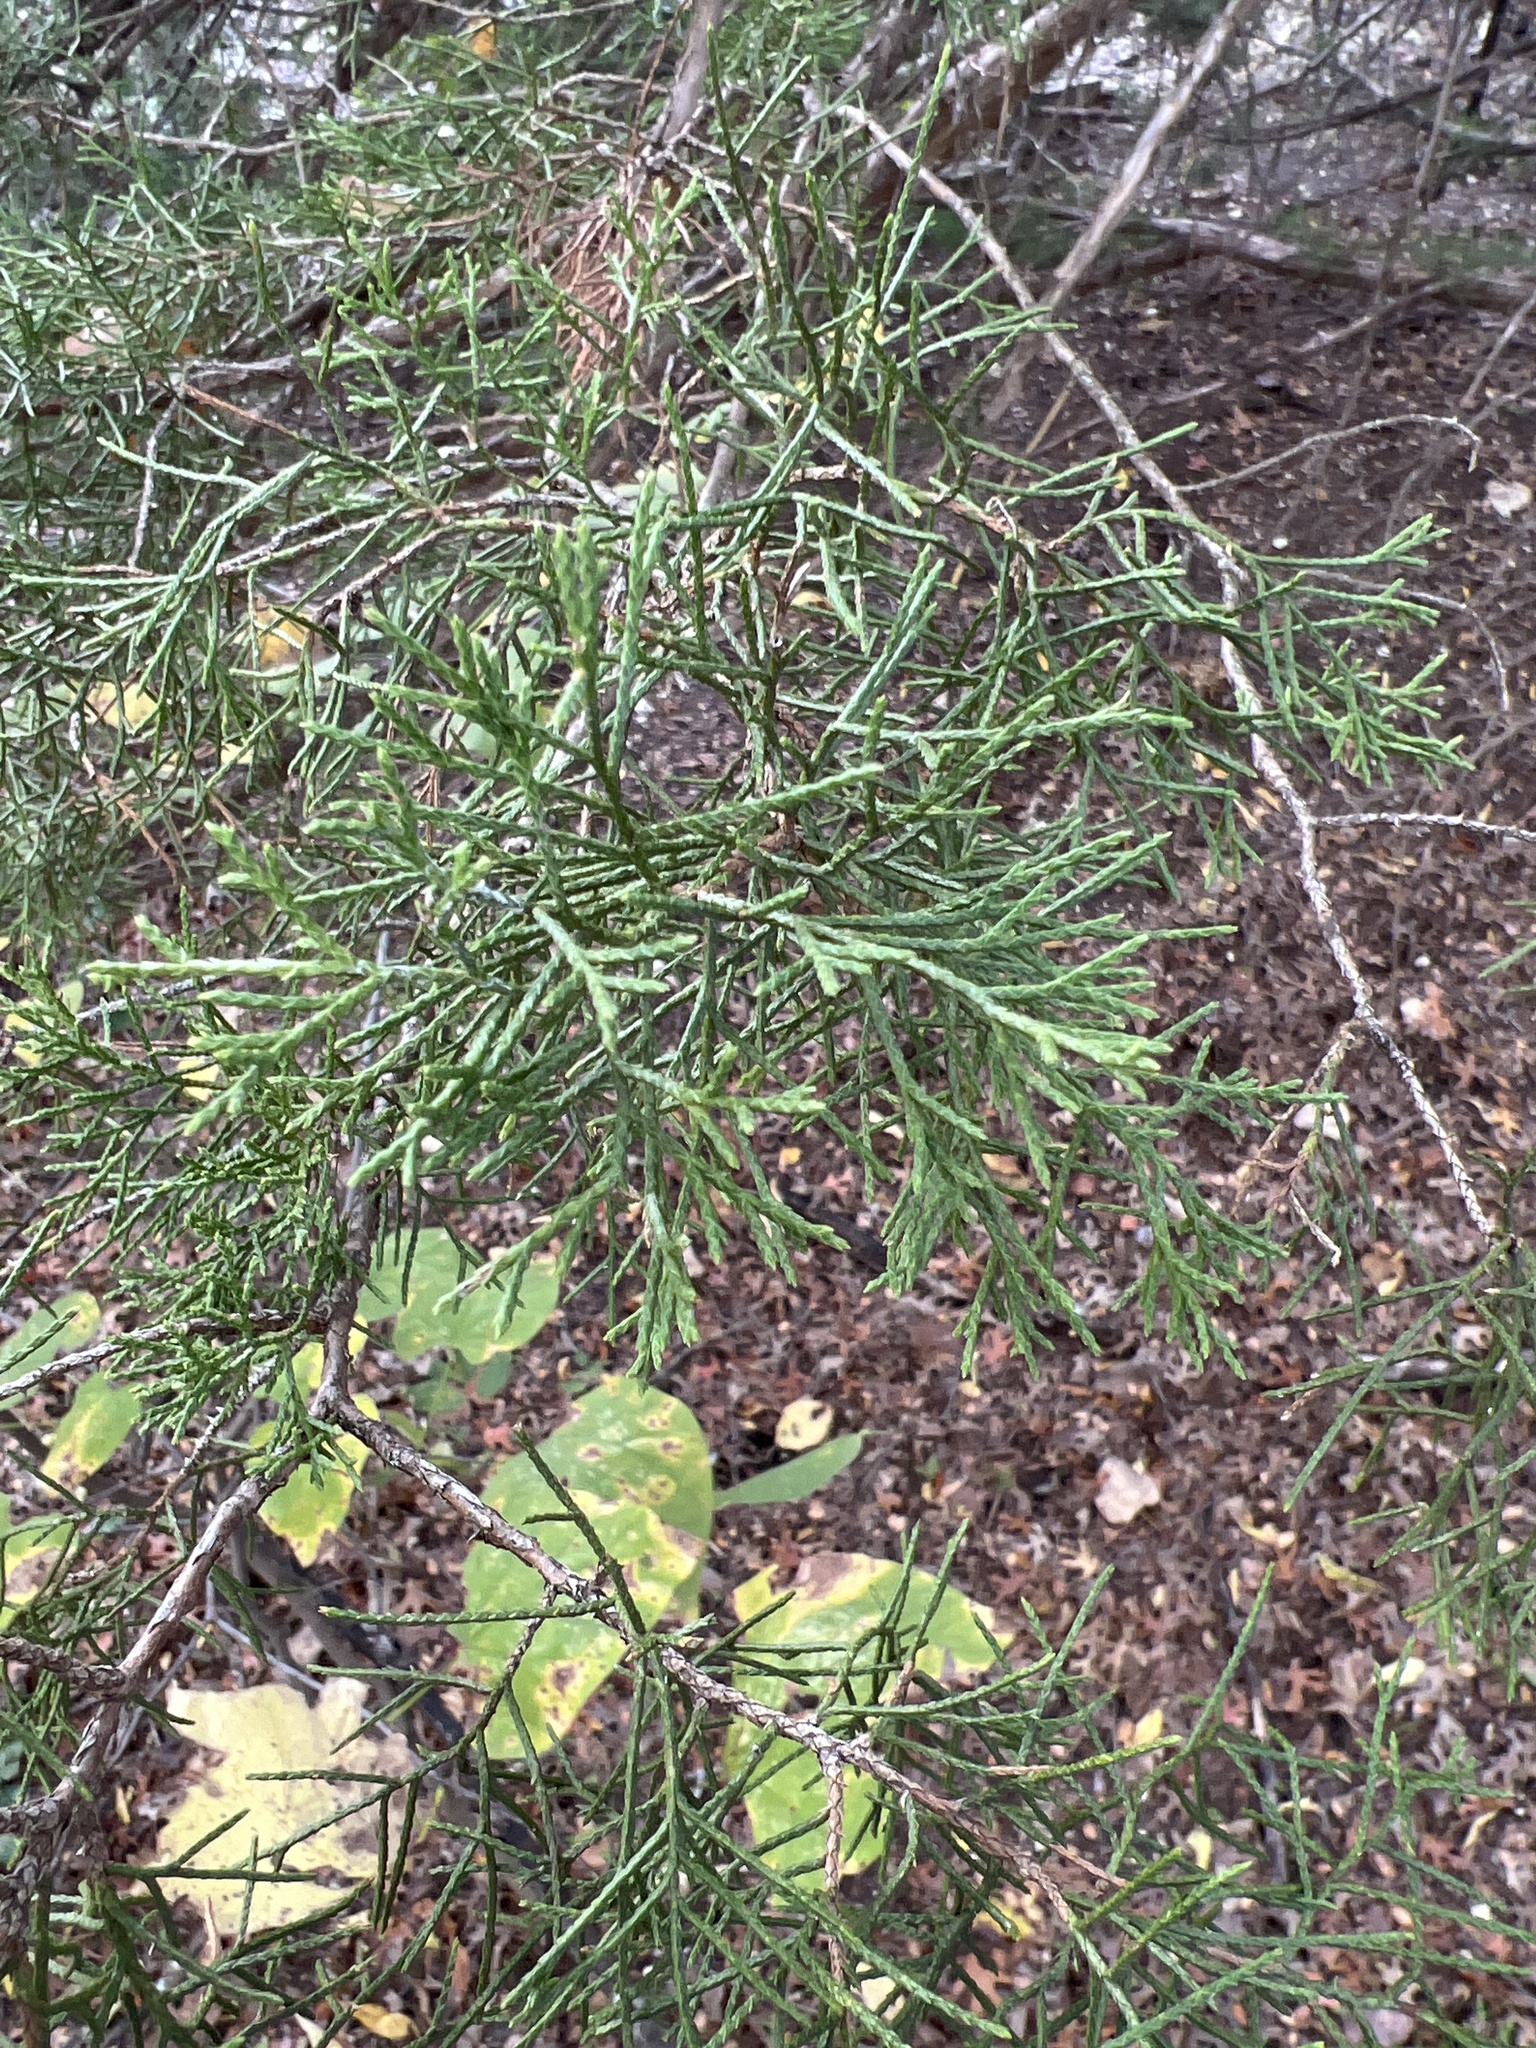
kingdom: Plantae
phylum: Tracheophyta
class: Pinopsida
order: Pinales
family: Cupressaceae
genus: Juniperus
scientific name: Juniperus virginiana
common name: Red juniper
